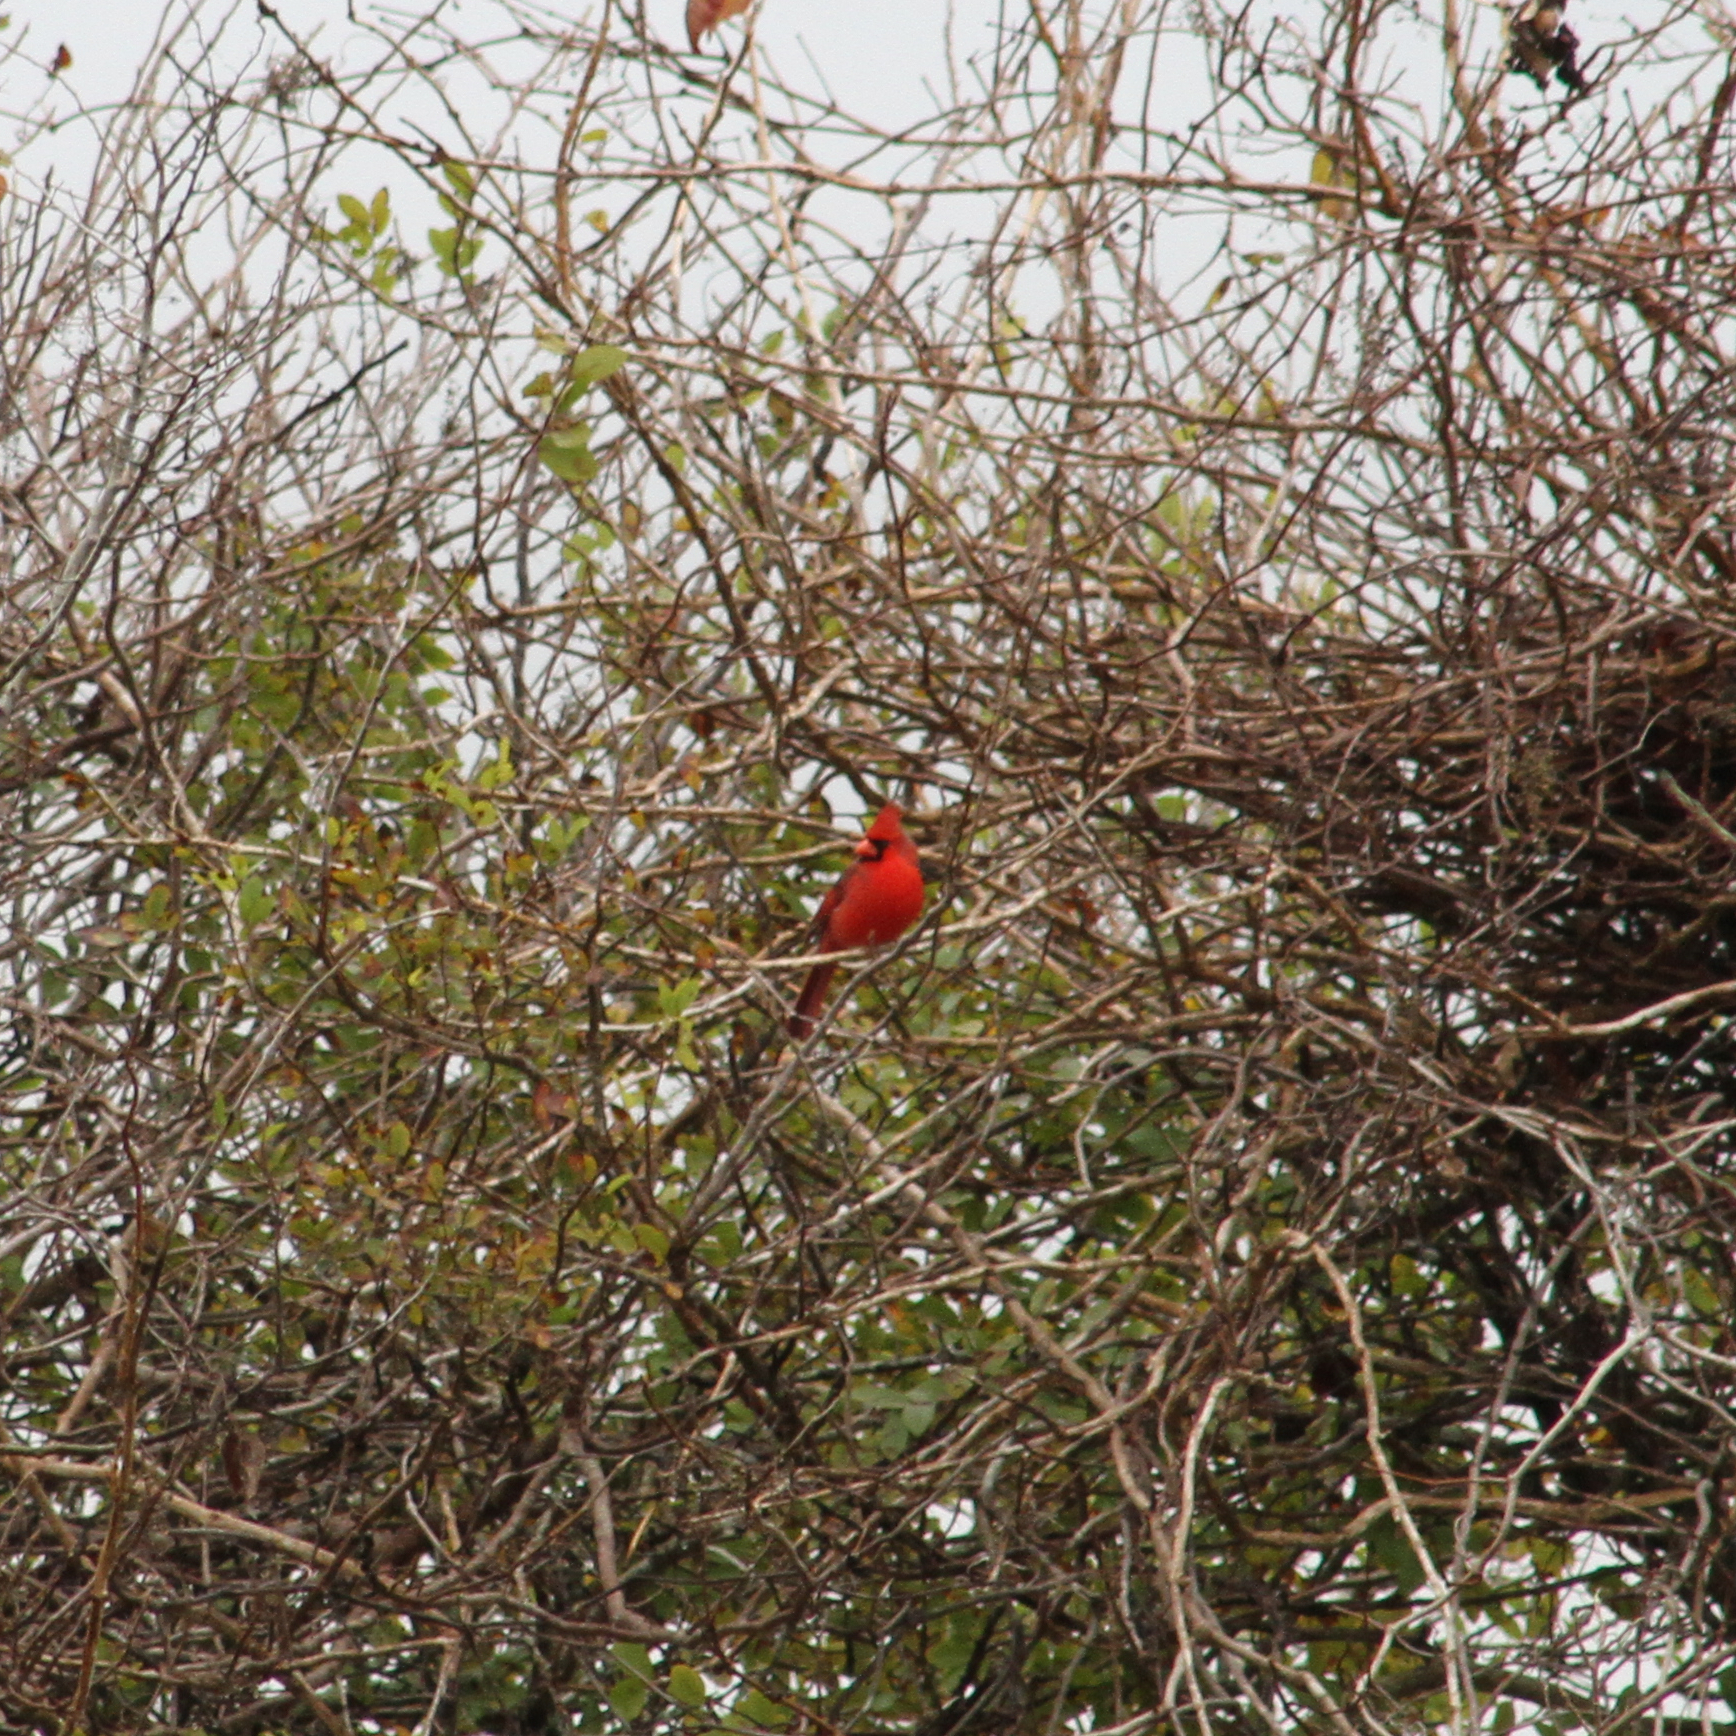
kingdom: Animalia
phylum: Chordata
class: Aves
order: Passeriformes
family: Cardinalidae
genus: Cardinalis
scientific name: Cardinalis cardinalis
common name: Northern cardinal
